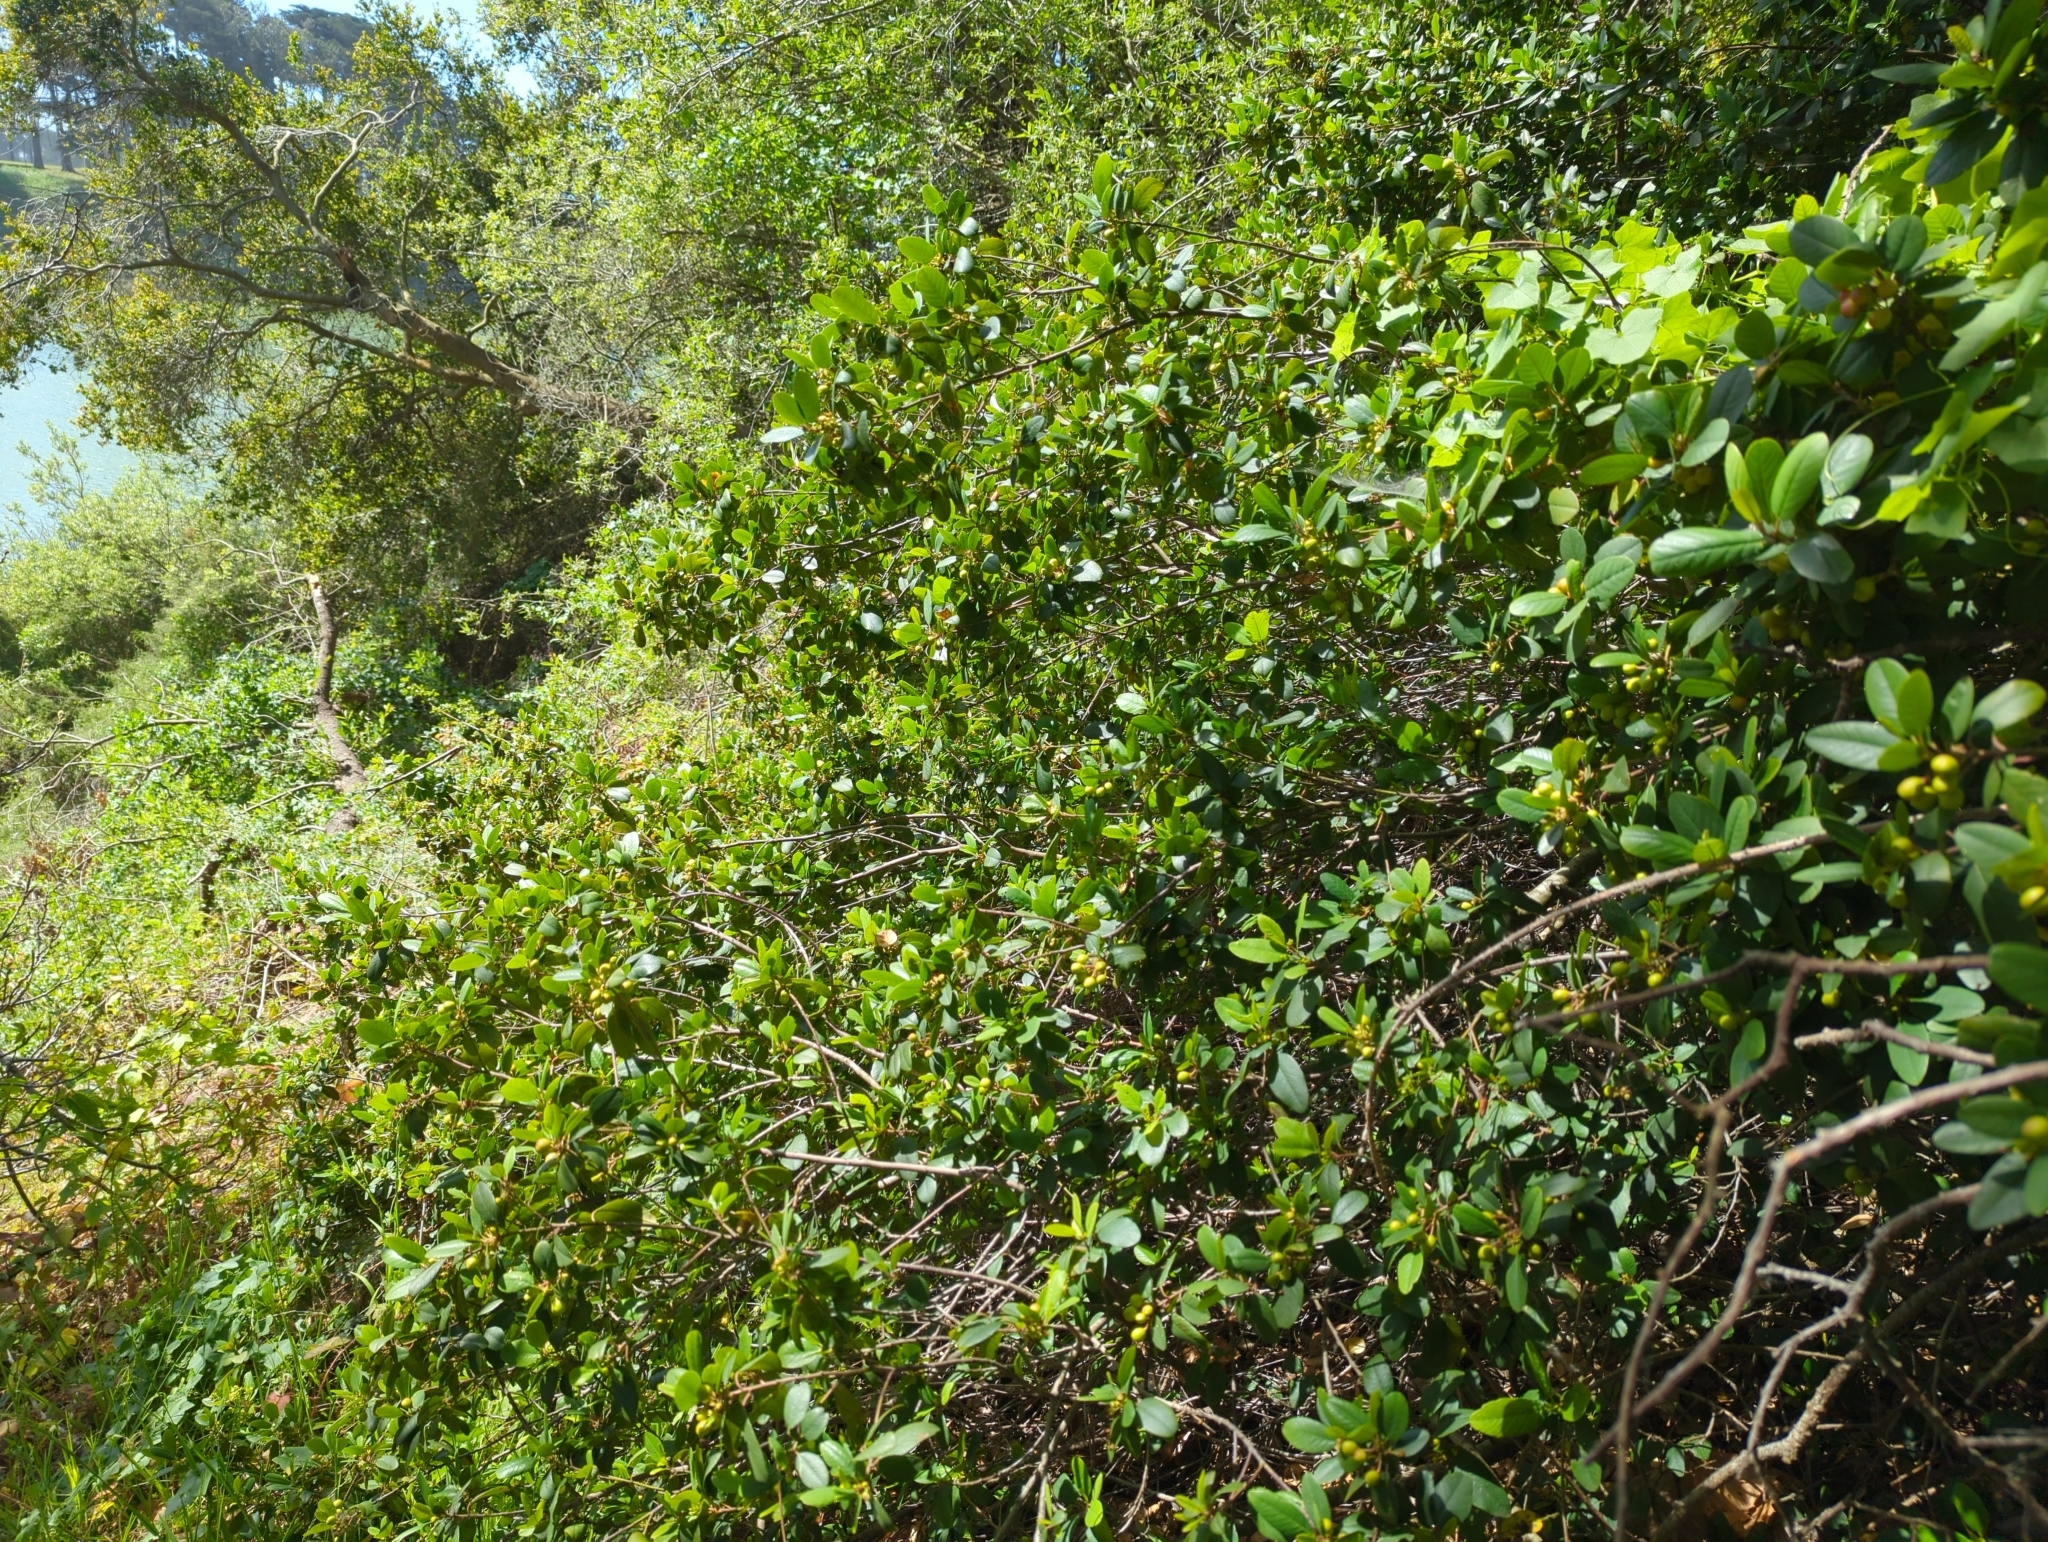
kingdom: Plantae
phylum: Tracheophyta
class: Magnoliopsida
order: Rosales
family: Rhamnaceae
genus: Frangula
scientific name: Frangula californica
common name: California buckthorn
